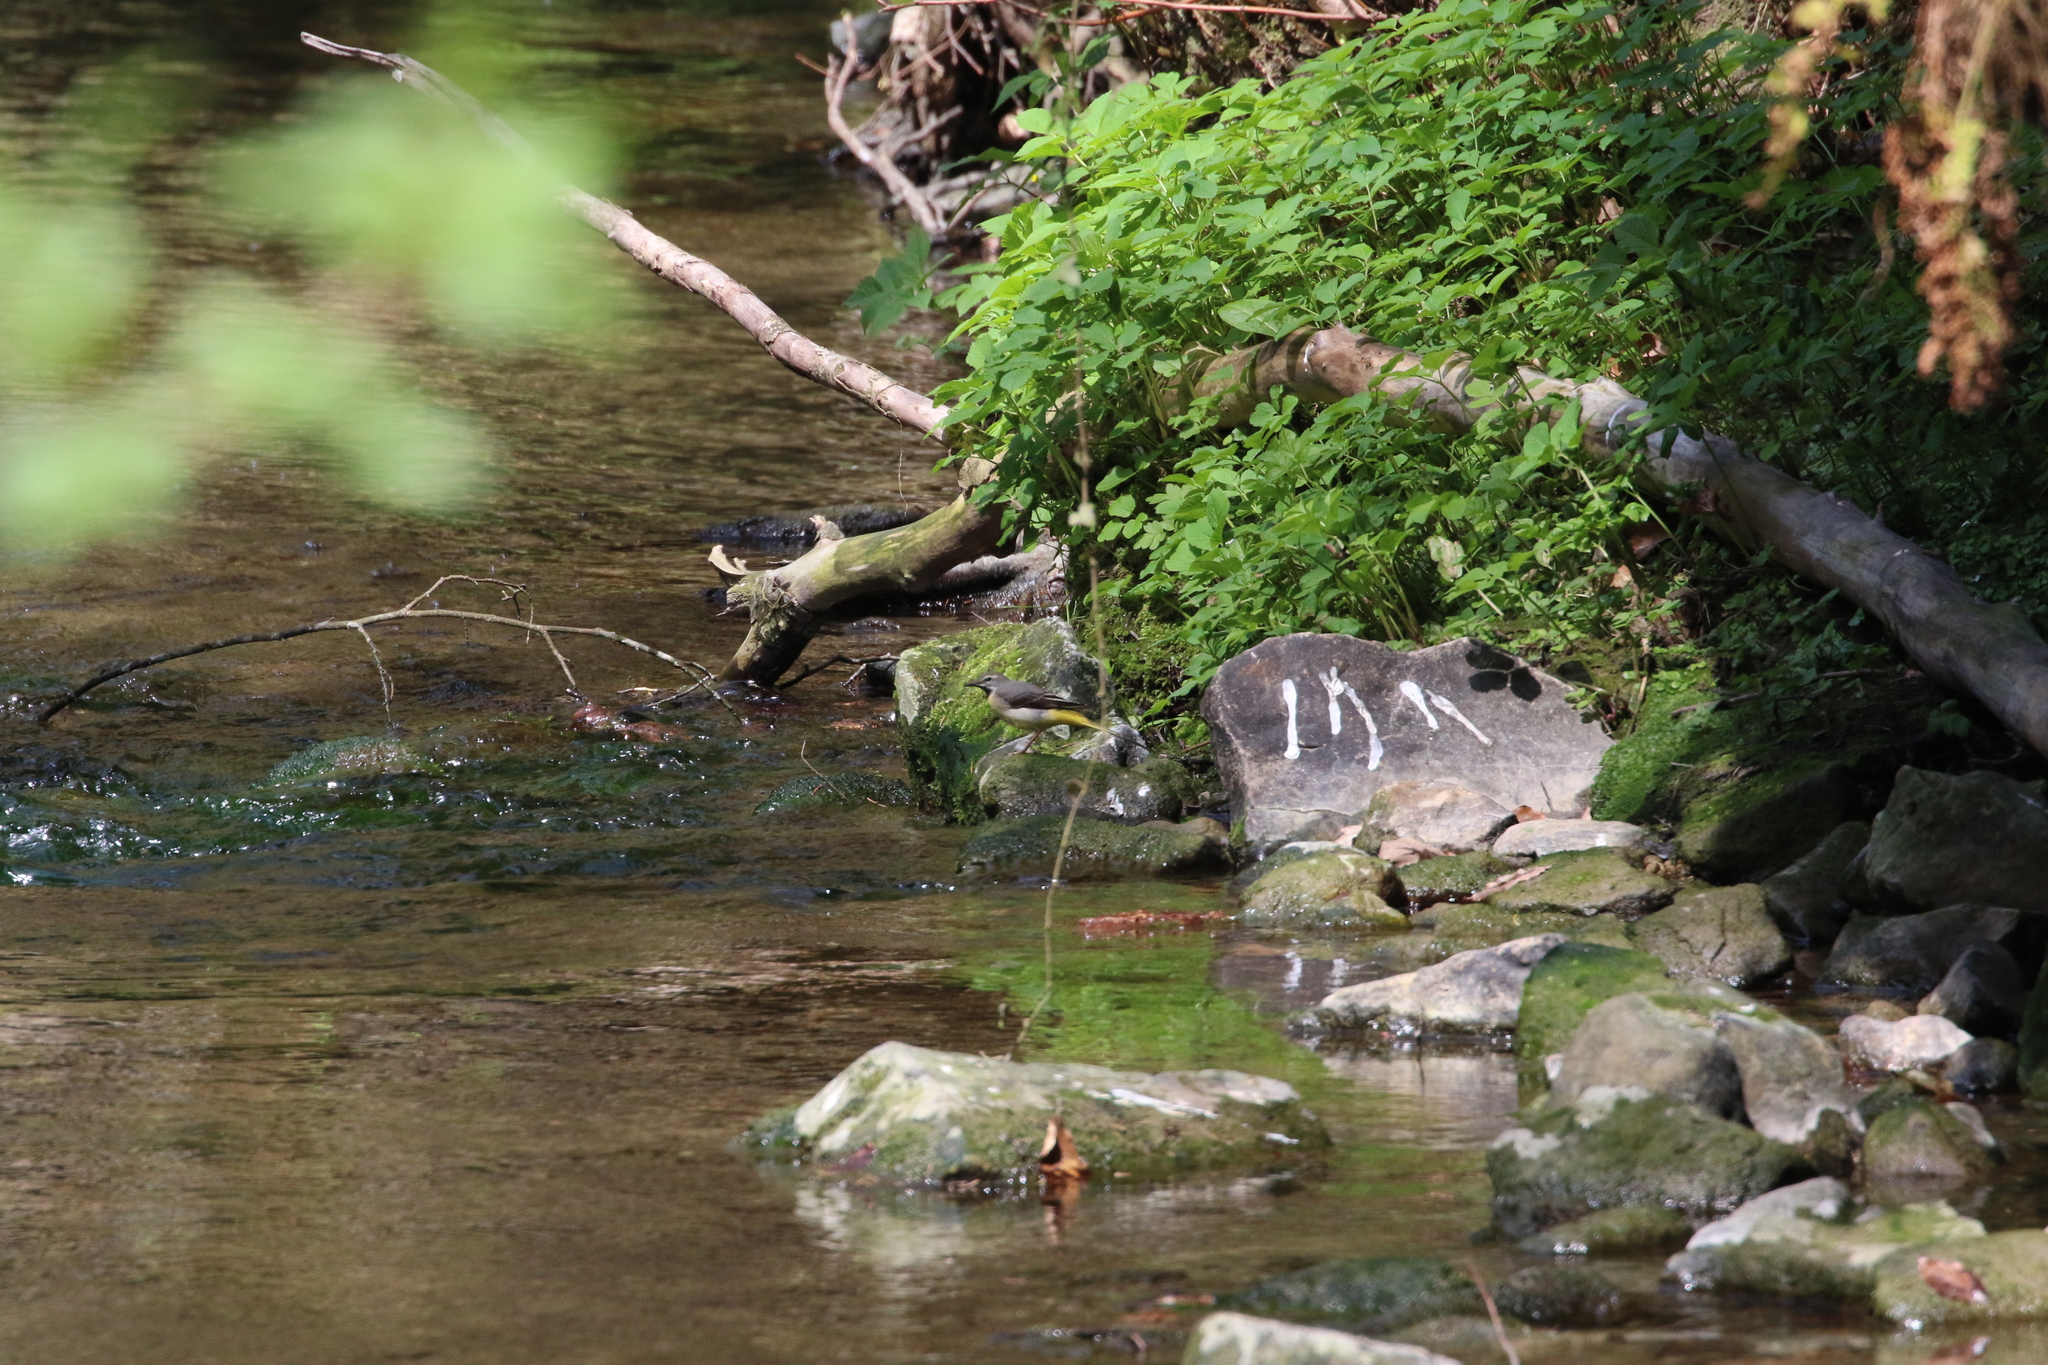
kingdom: Animalia
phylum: Chordata
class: Aves
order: Passeriformes
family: Motacillidae
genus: Motacilla
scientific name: Motacilla cinerea
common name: Grey wagtail
